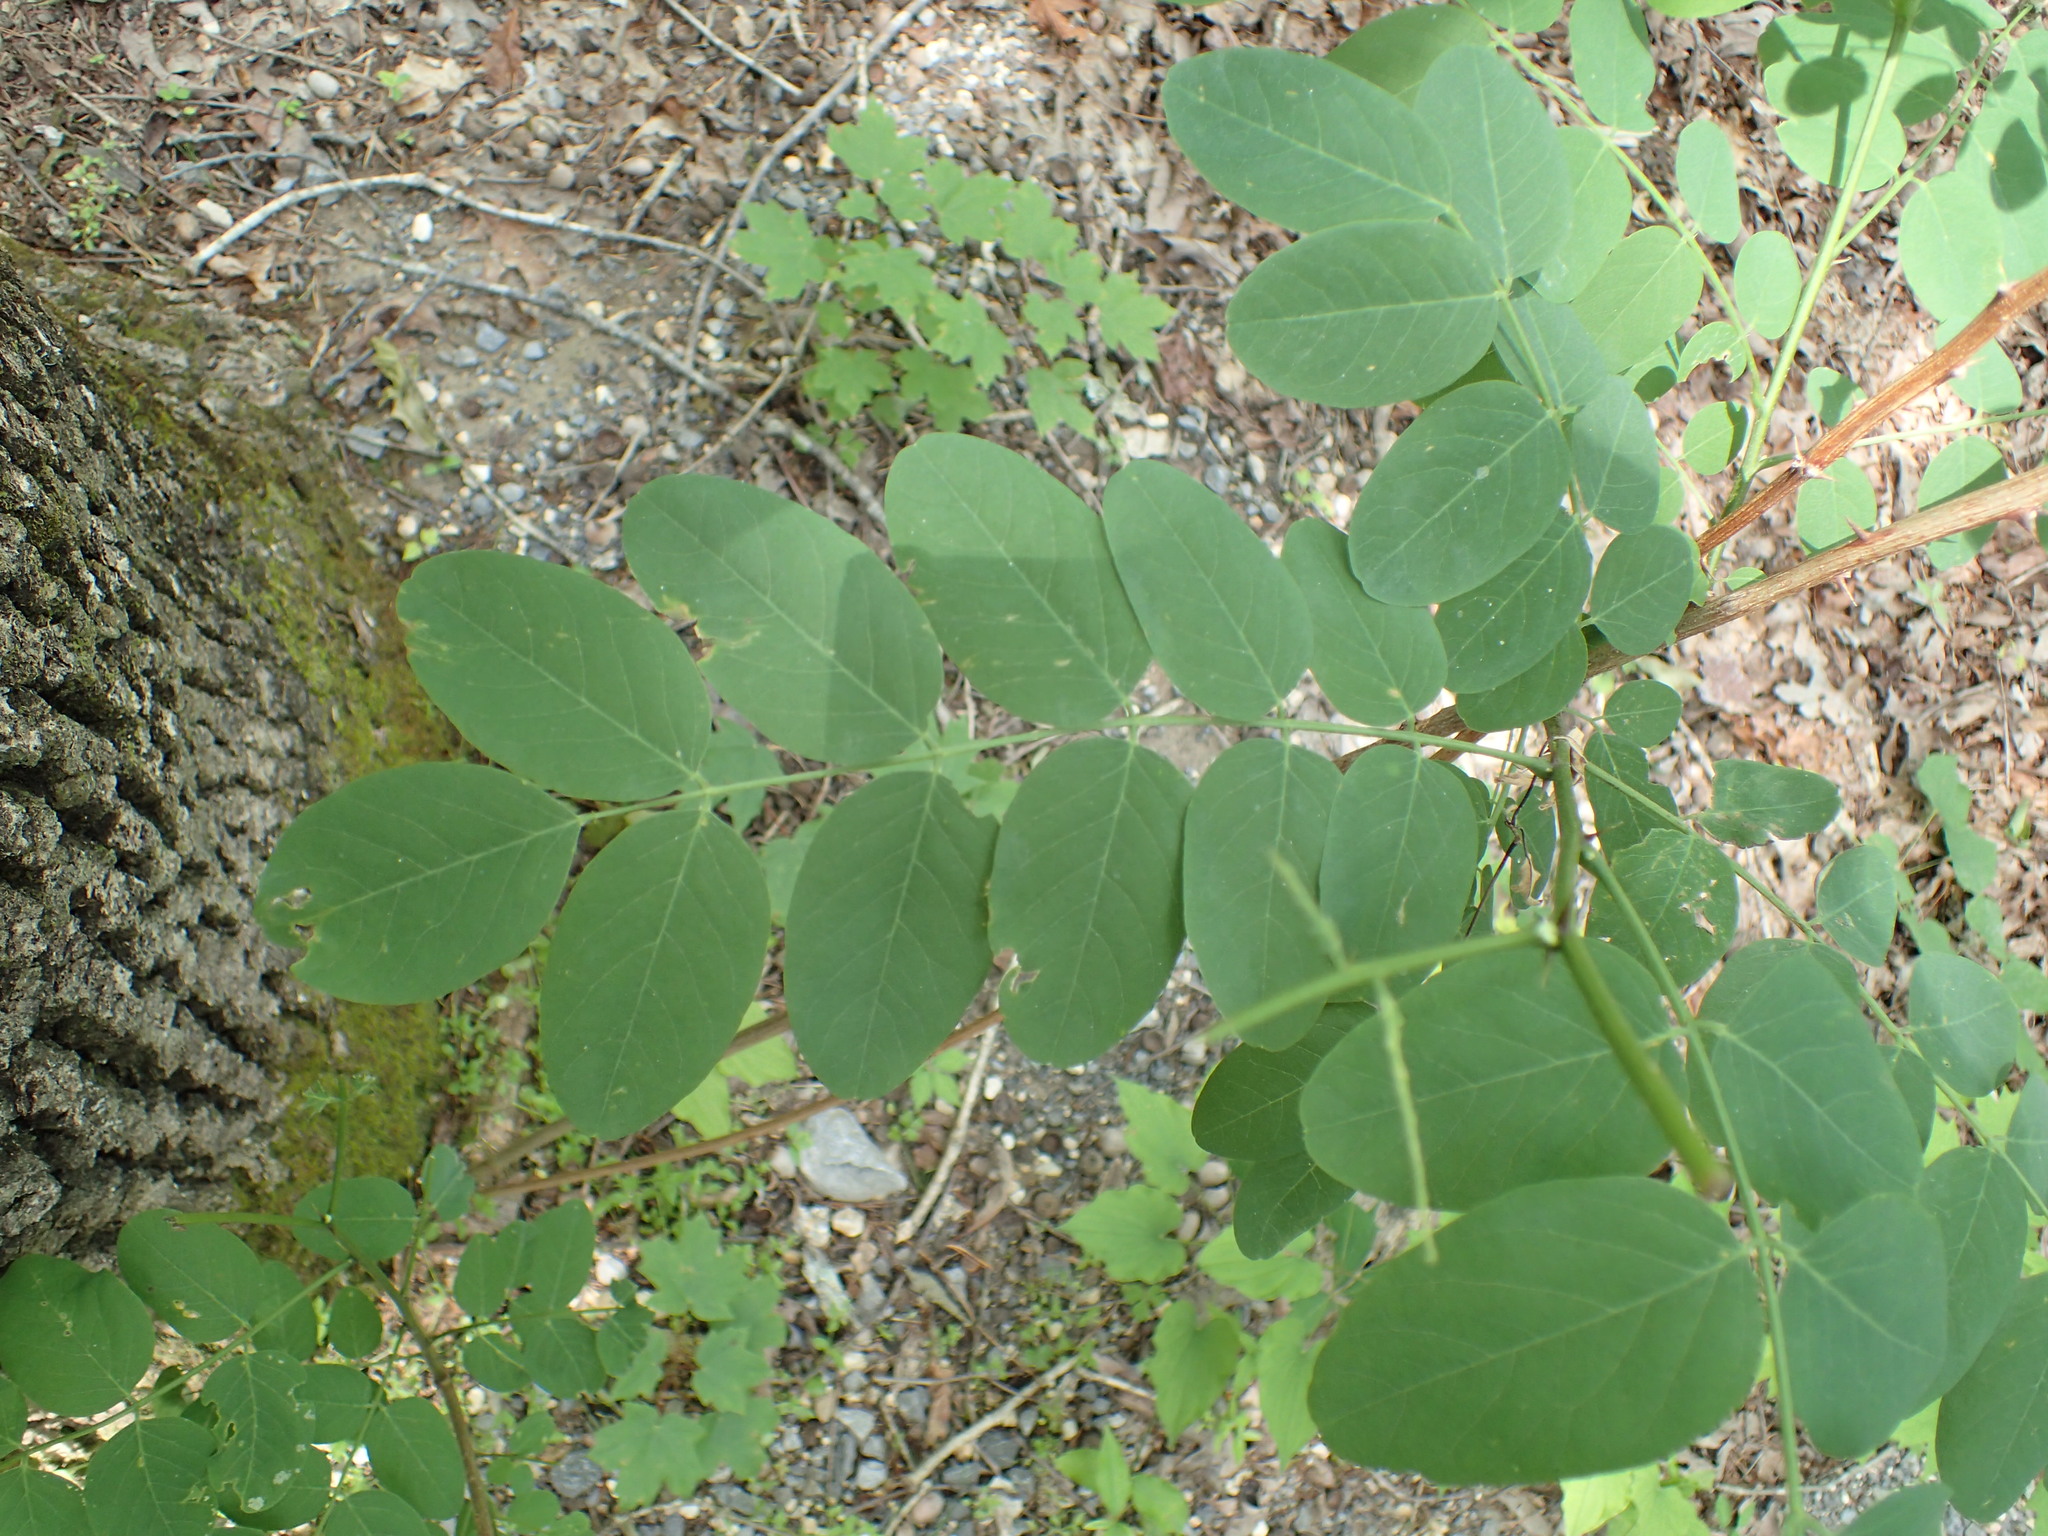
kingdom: Plantae
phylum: Tracheophyta
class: Magnoliopsida
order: Fabales
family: Fabaceae
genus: Robinia
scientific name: Robinia pseudoacacia
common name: Black locust
